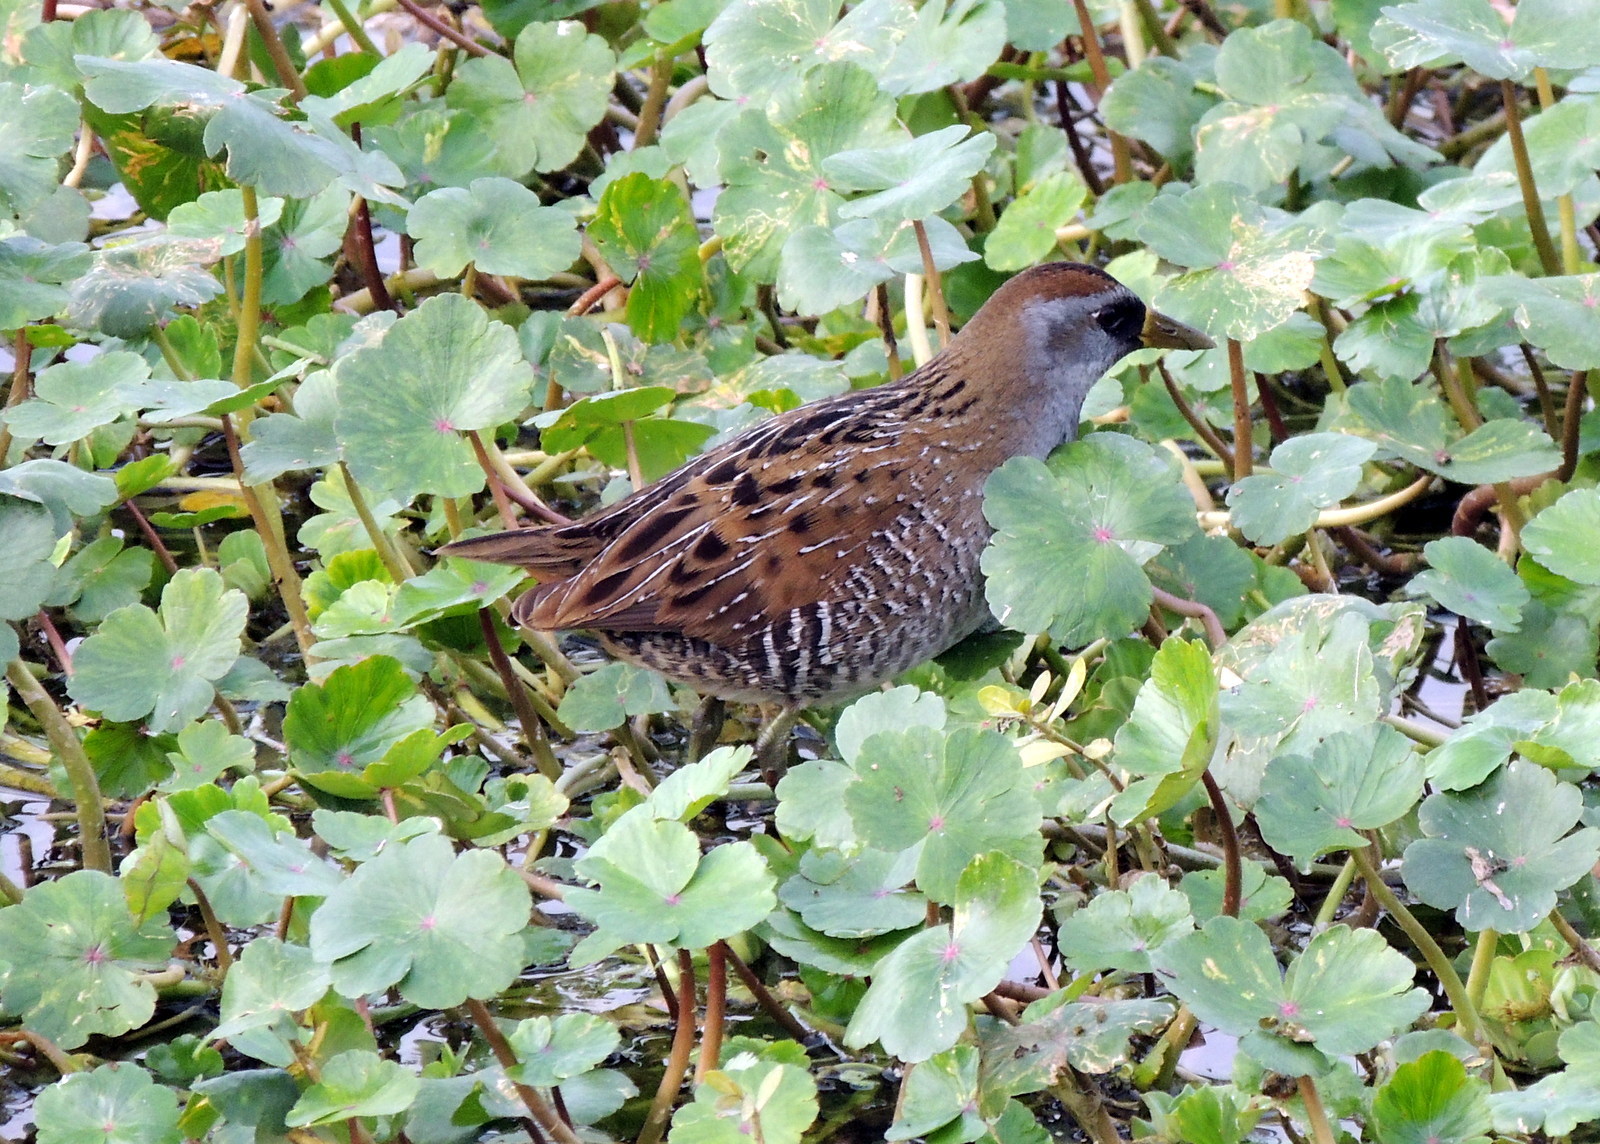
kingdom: Animalia
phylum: Chordata
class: Aves
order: Gruiformes
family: Rallidae
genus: Porzana
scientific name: Porzana carolina
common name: Sora
